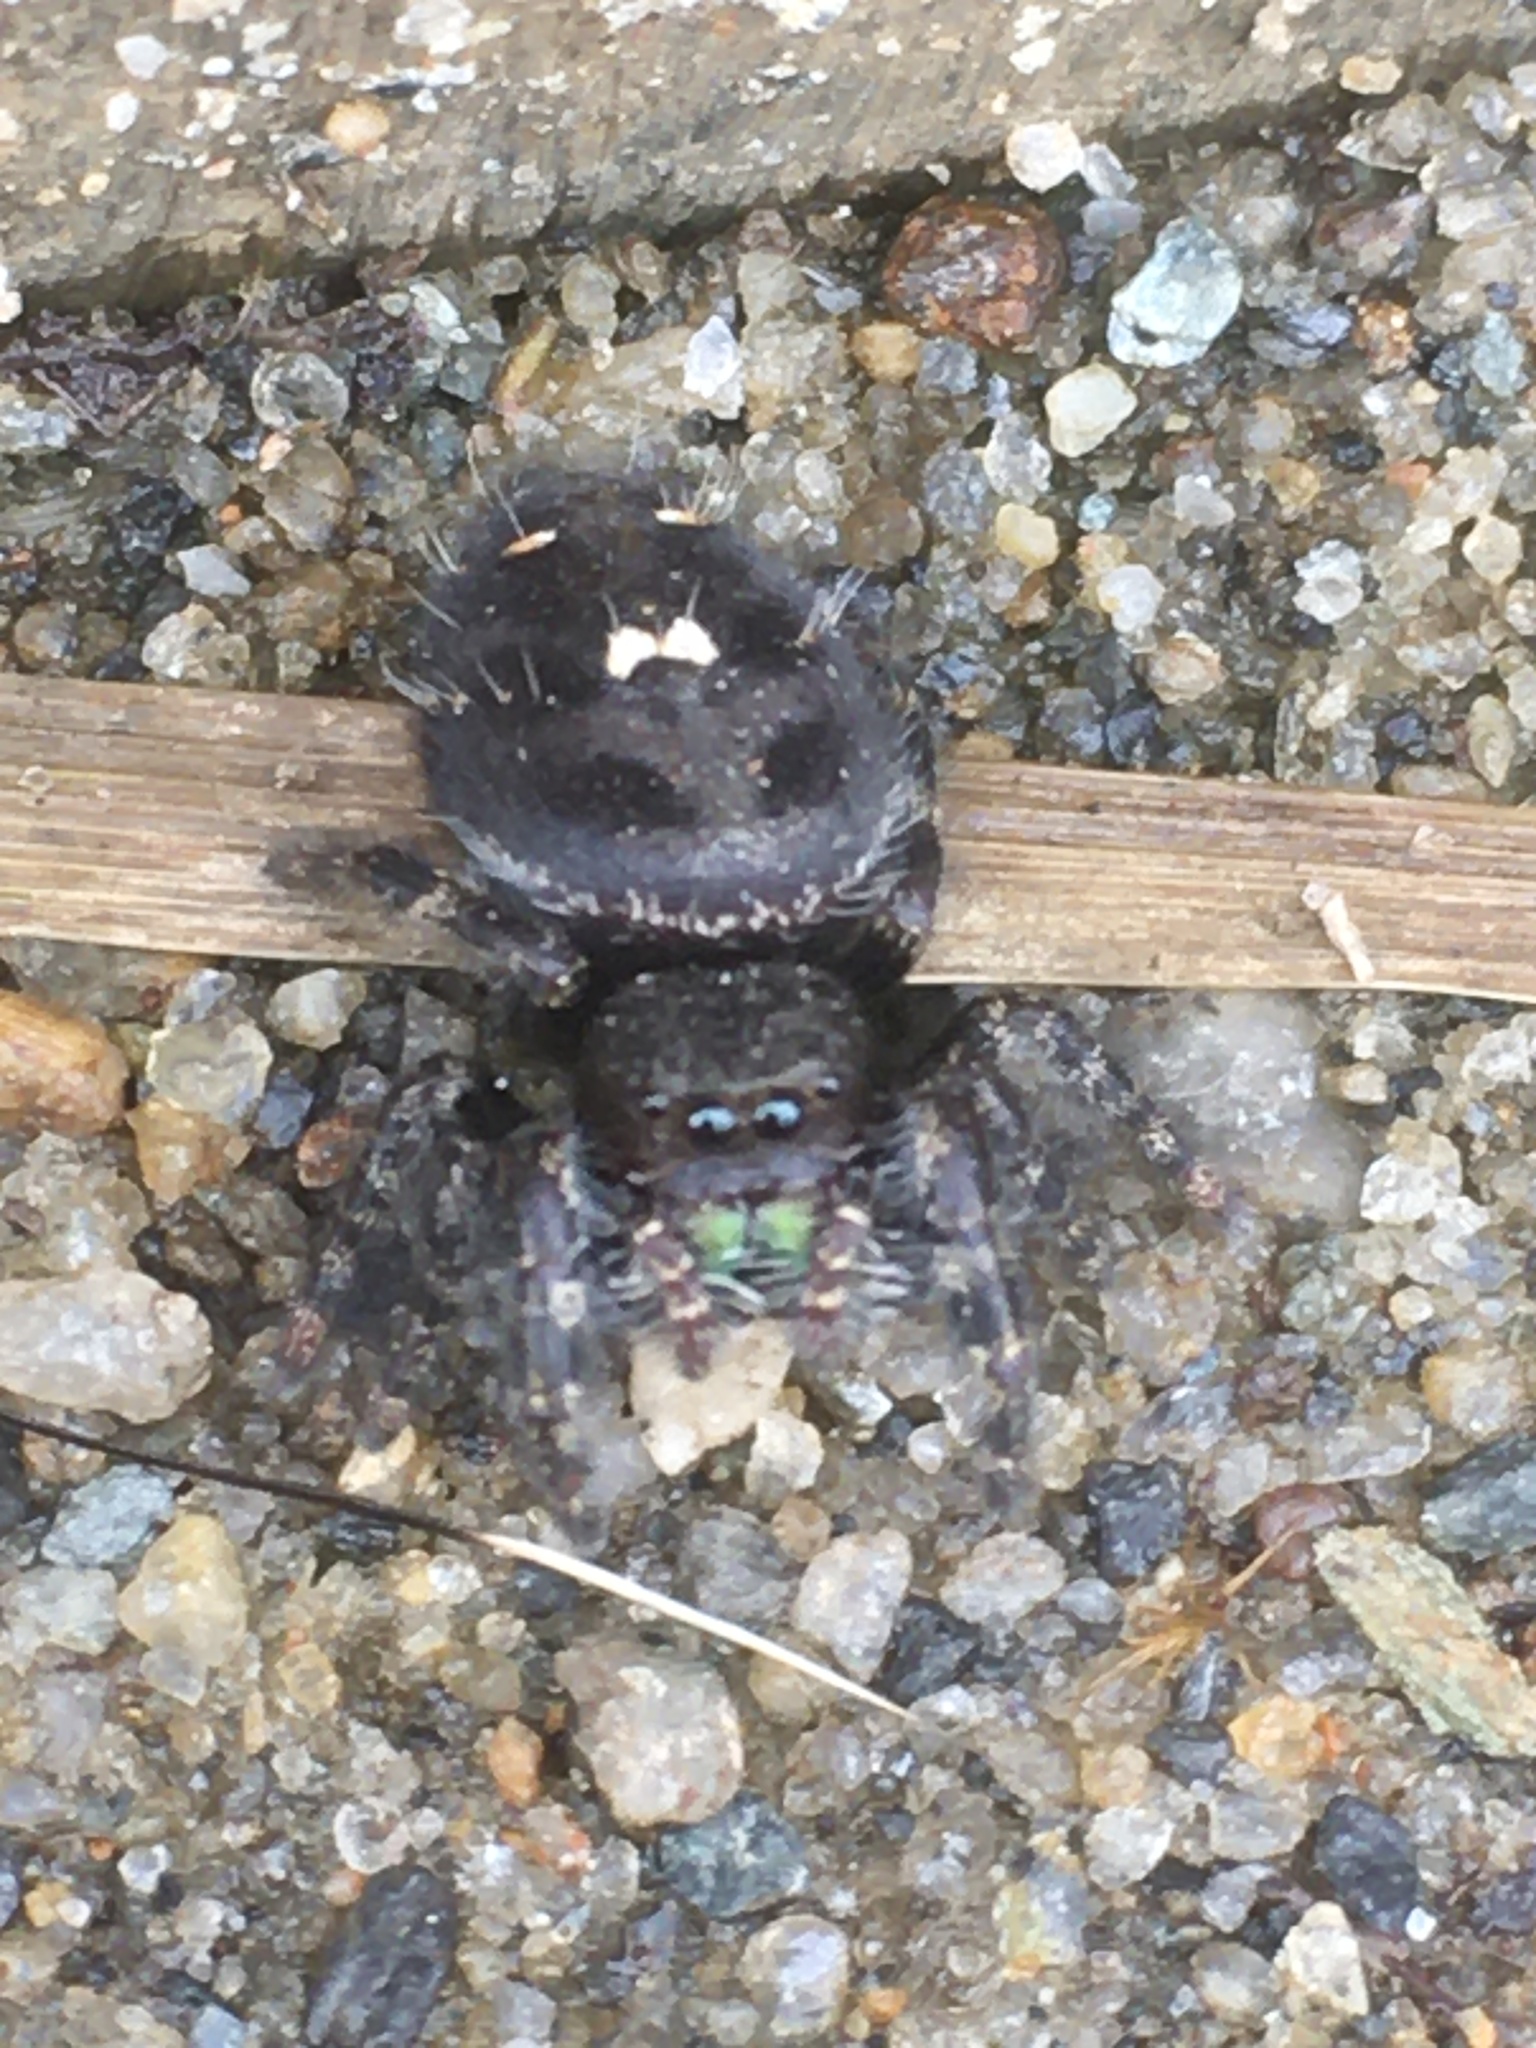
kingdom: Animalia
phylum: Arthropoda
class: Arachnida
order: Araneae
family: Salticidae
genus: Phidippus
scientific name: Phidippus audax
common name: Bold jumper
